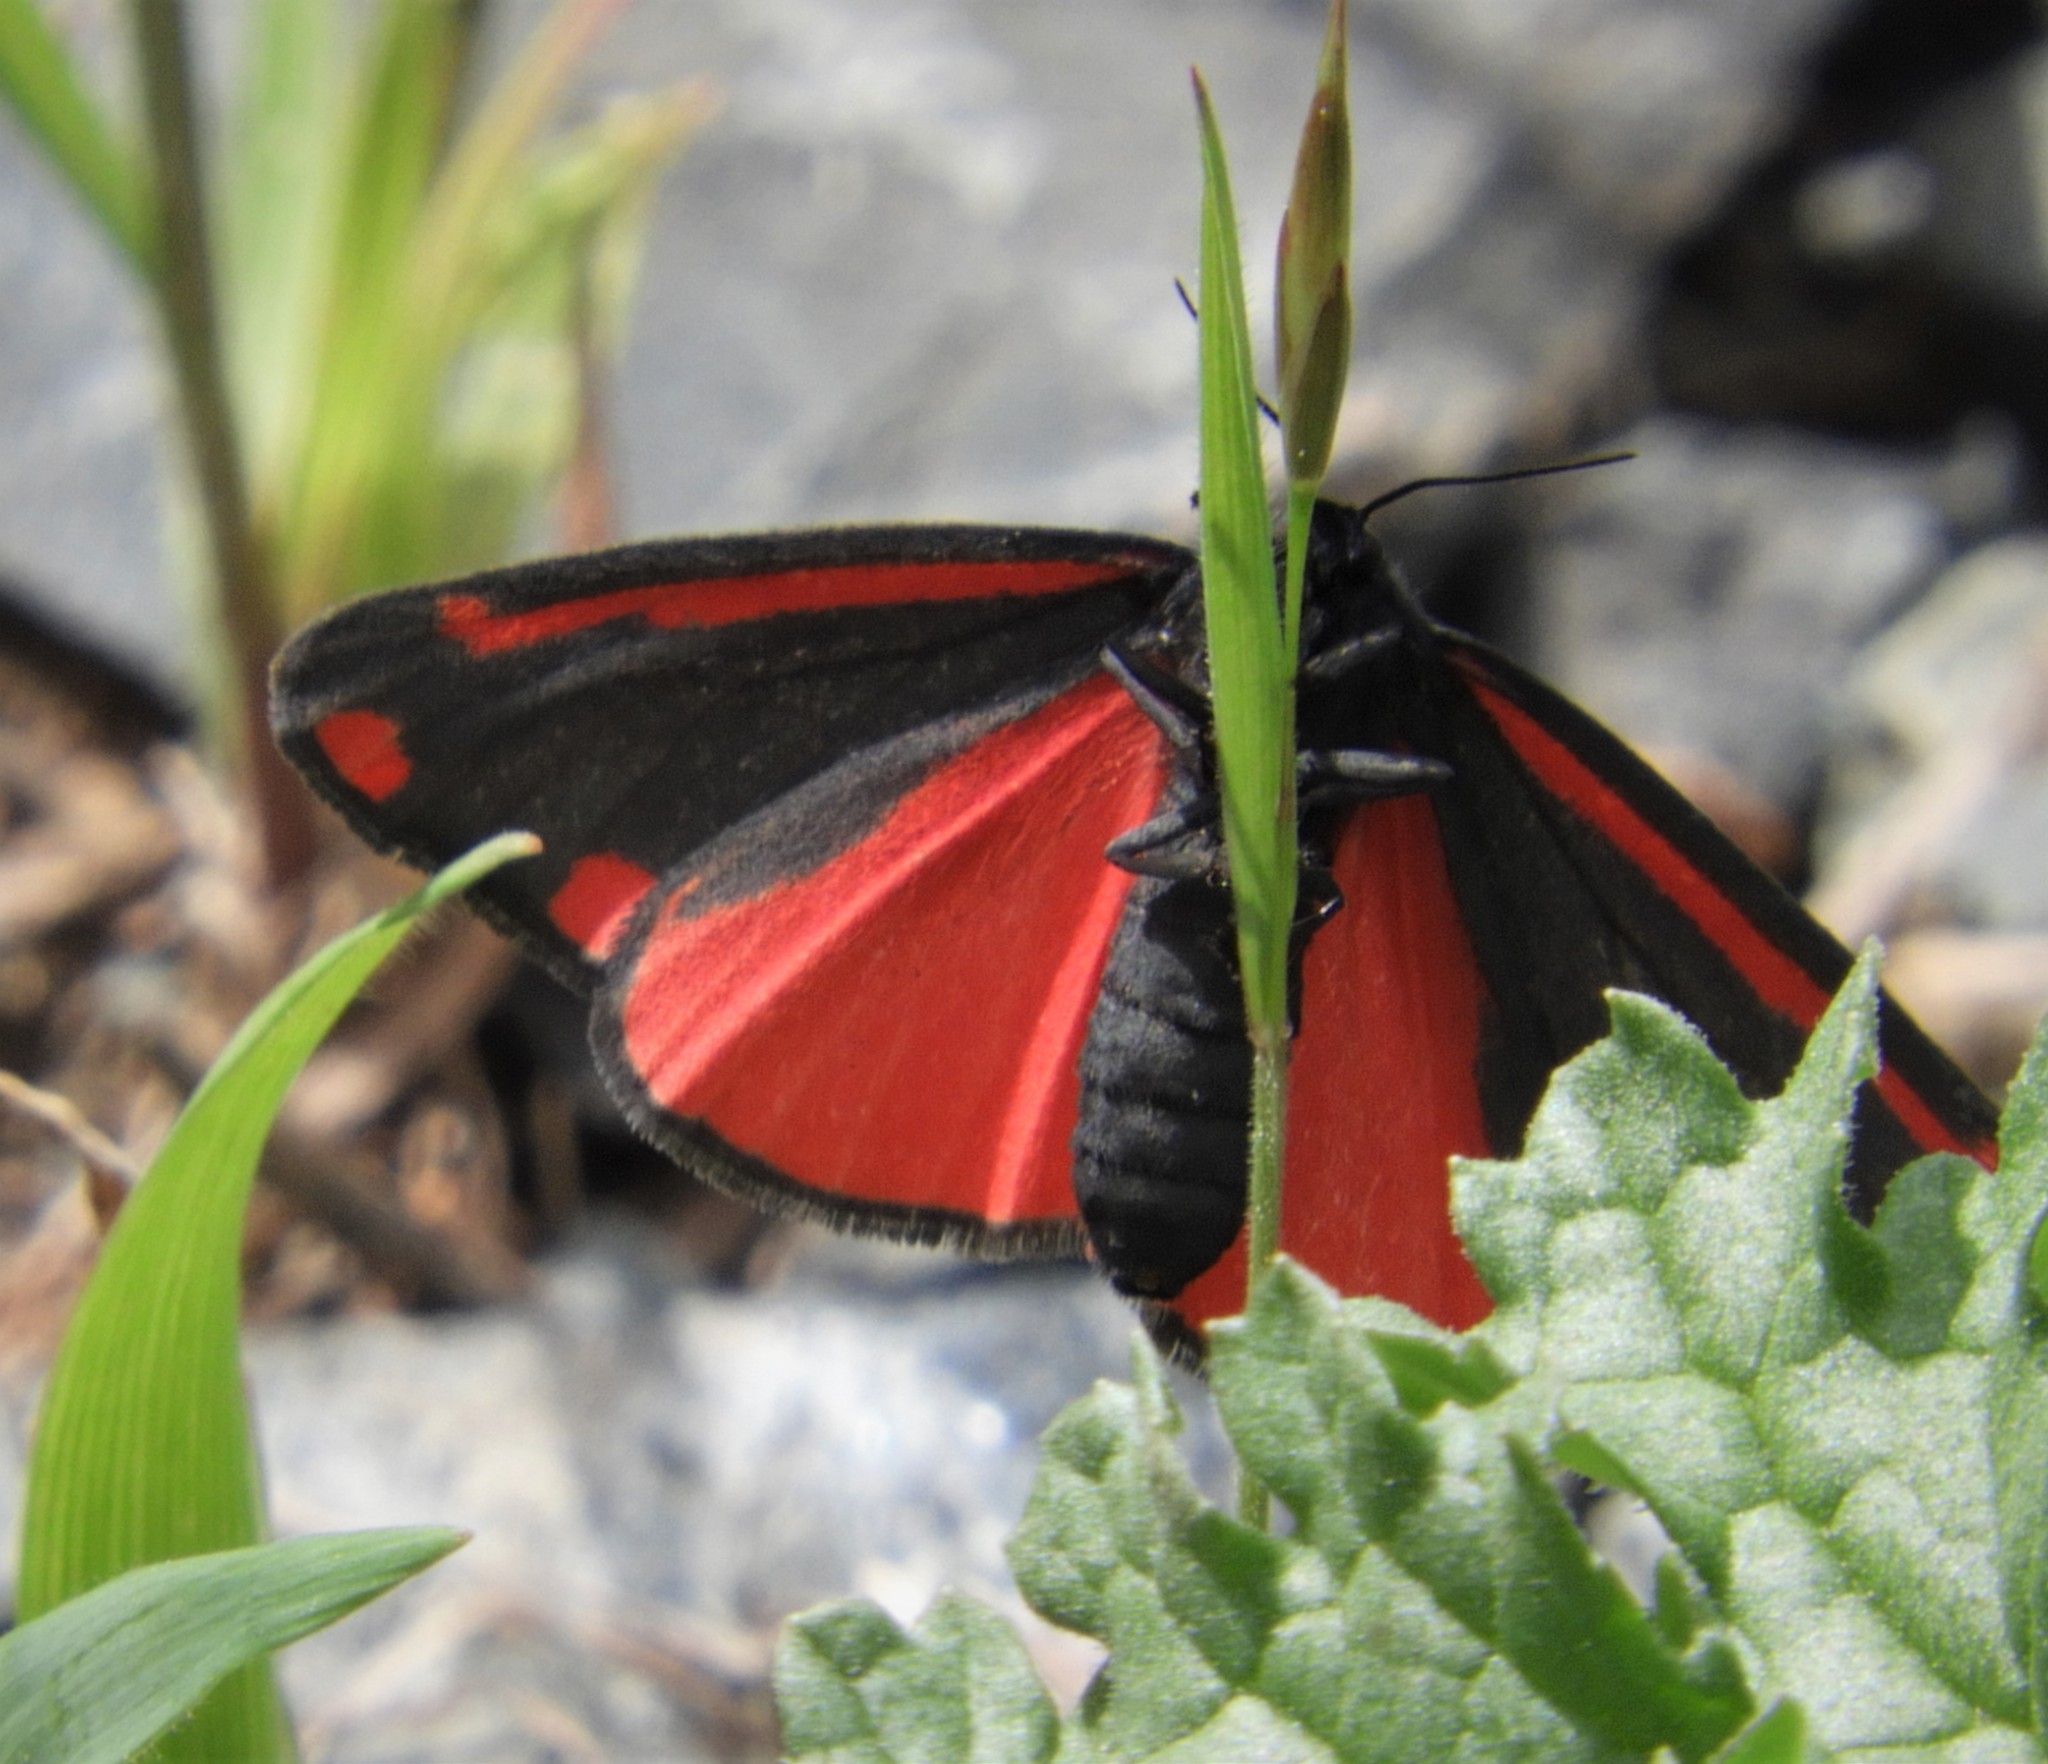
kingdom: Animalia
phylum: Arthropoda
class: Insecta
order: Lepidoptera
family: Erebidae
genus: Tyria
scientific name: Tyria jacobaeae
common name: Cinnabar
